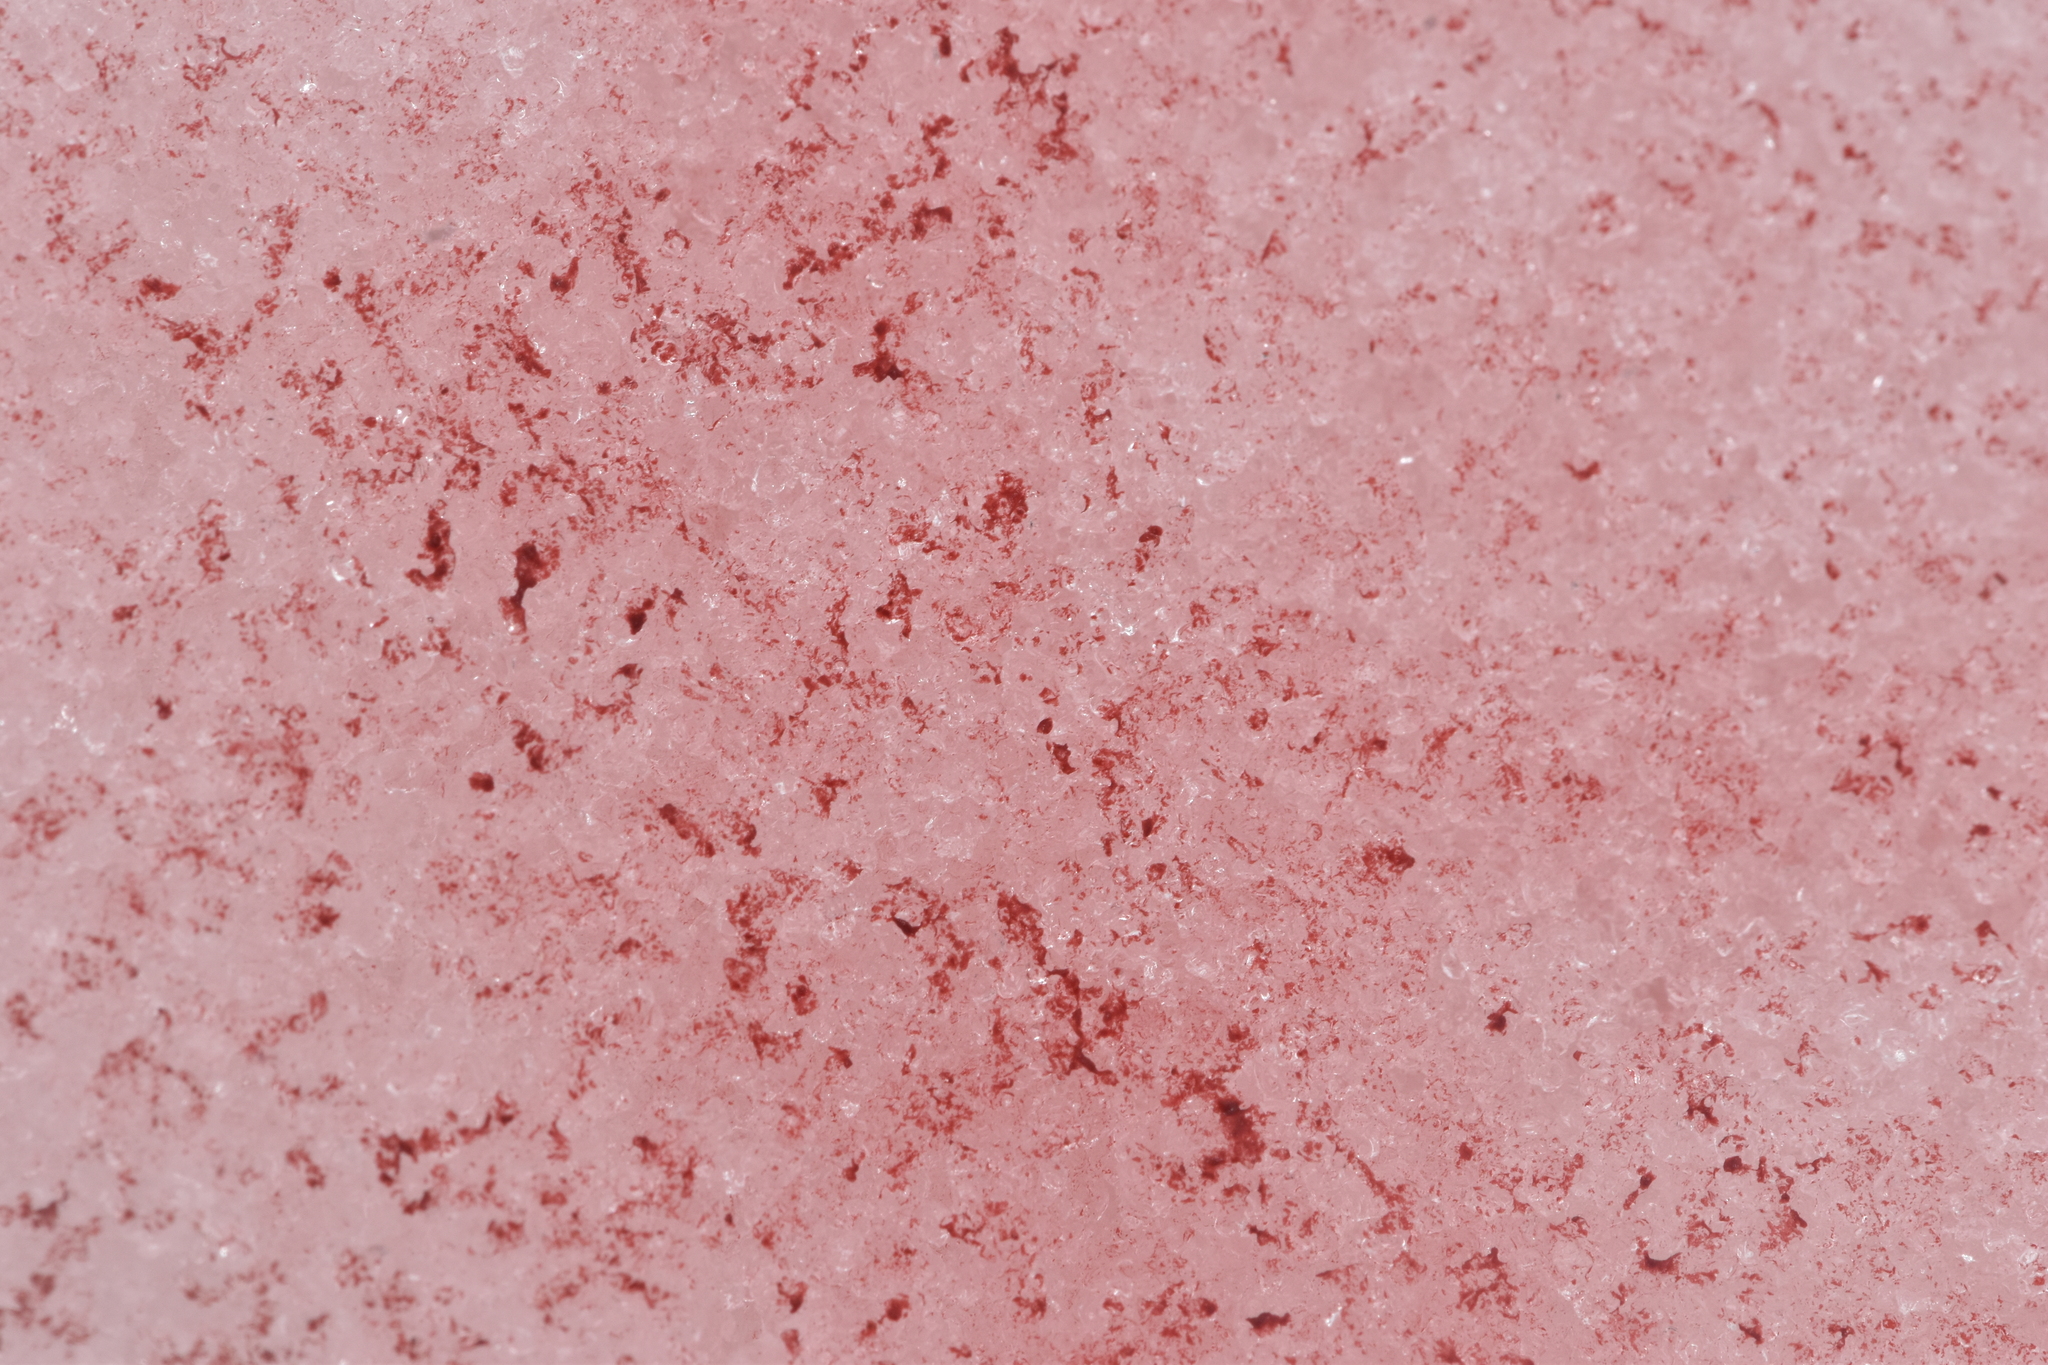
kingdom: Plantae
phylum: Chlorophyta
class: Chlorophyceae
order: Volvocales
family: Chlamydomonadaceae
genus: Chlamydomonas
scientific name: Chlamydomonas nivalis
